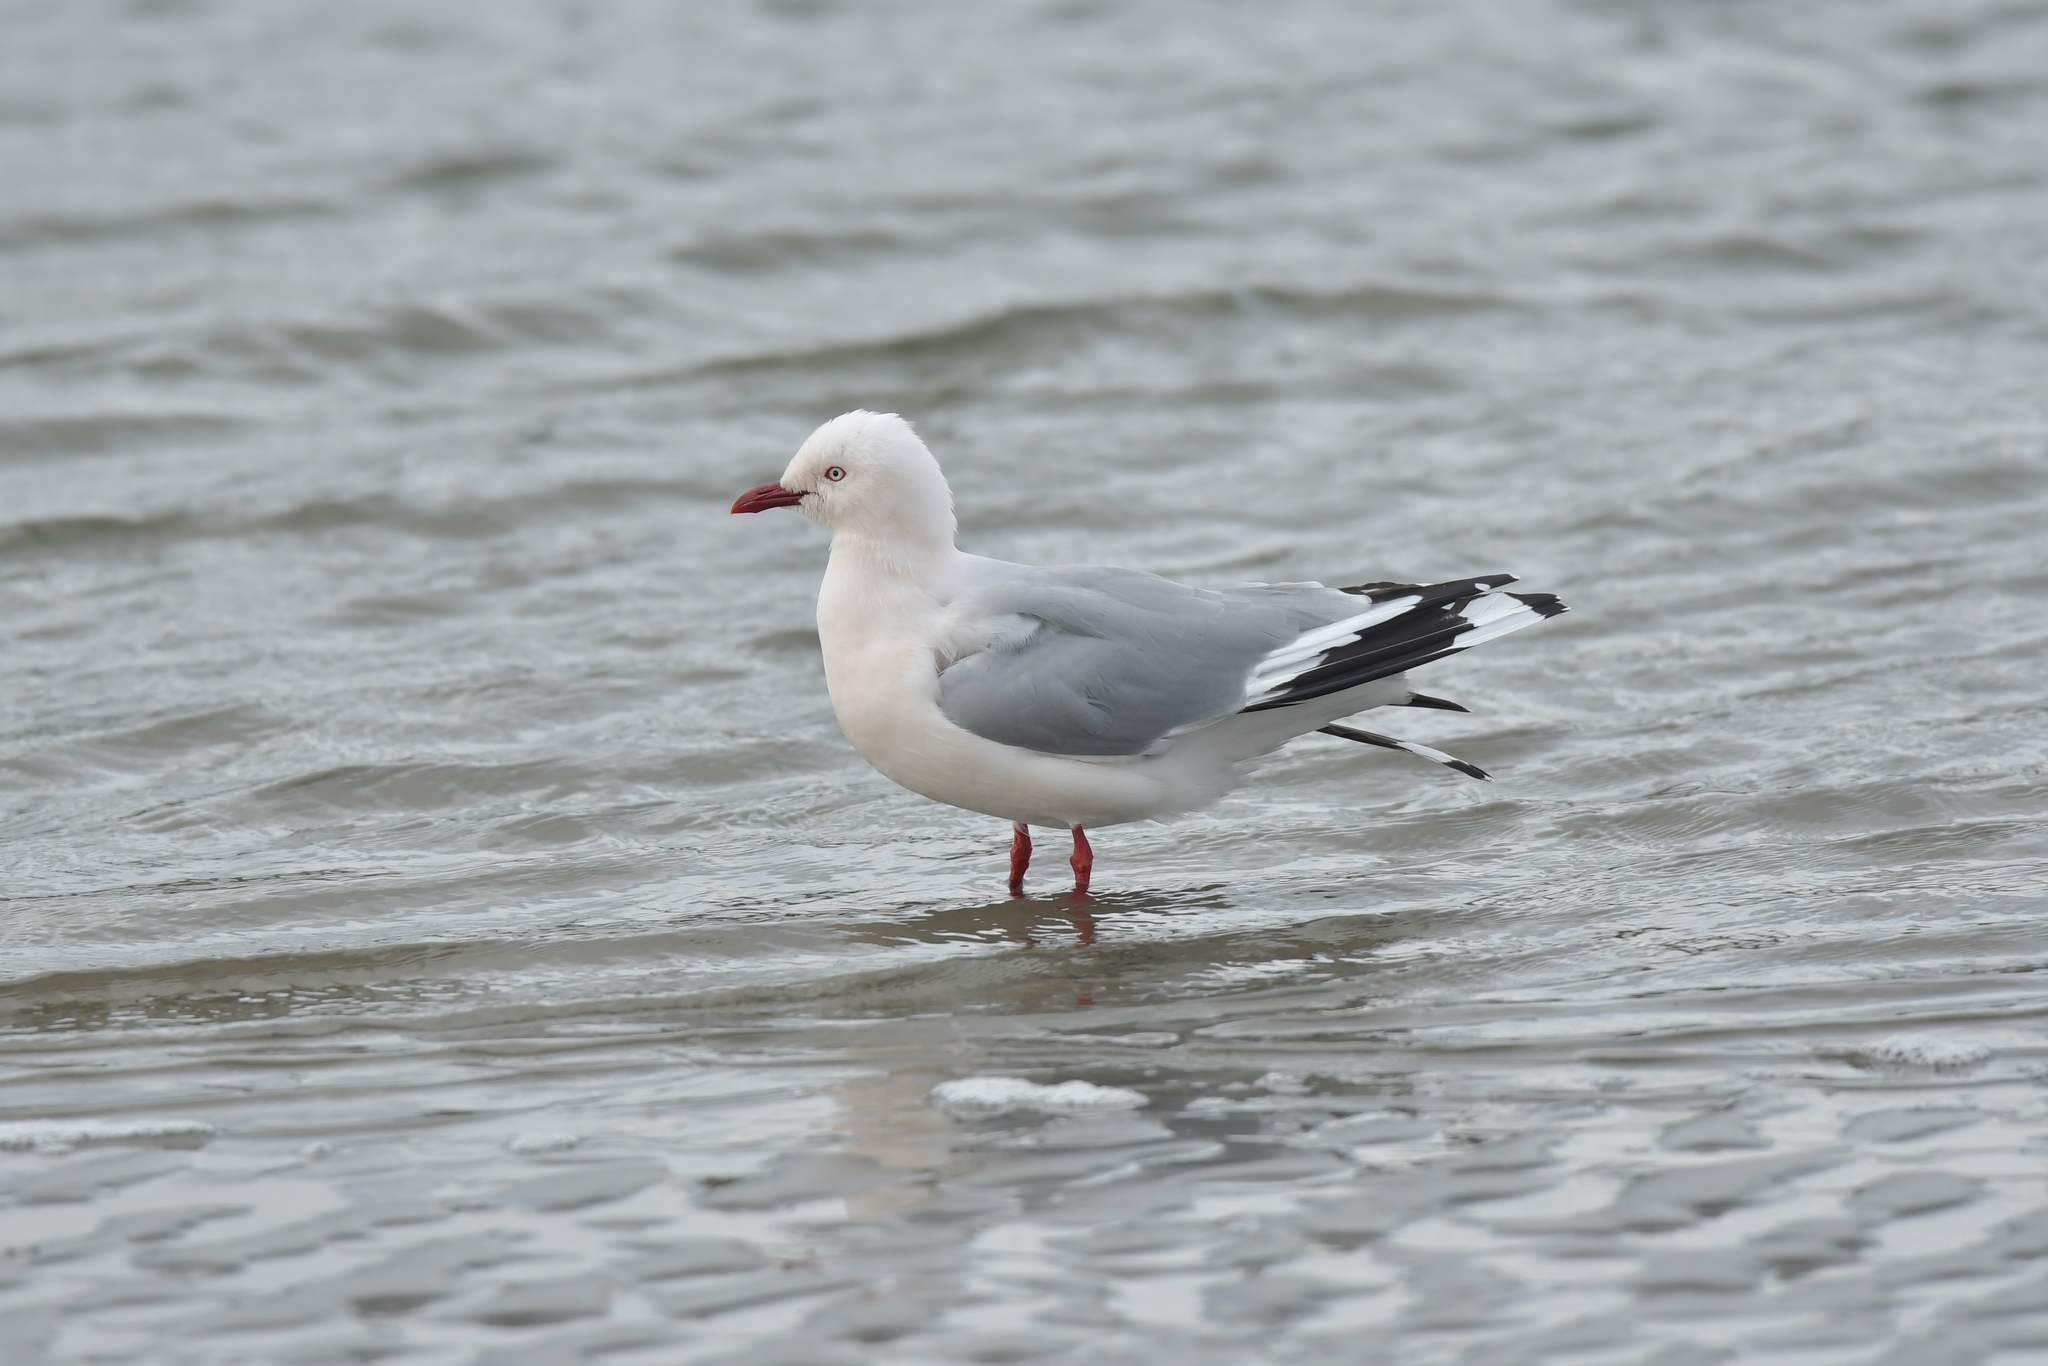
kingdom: Animalia
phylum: Chordata
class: Aves
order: Charadriiformes
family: Laridae
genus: Chroicocephalus
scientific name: Chroicocephalus novaehollandiae
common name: Silver gull
